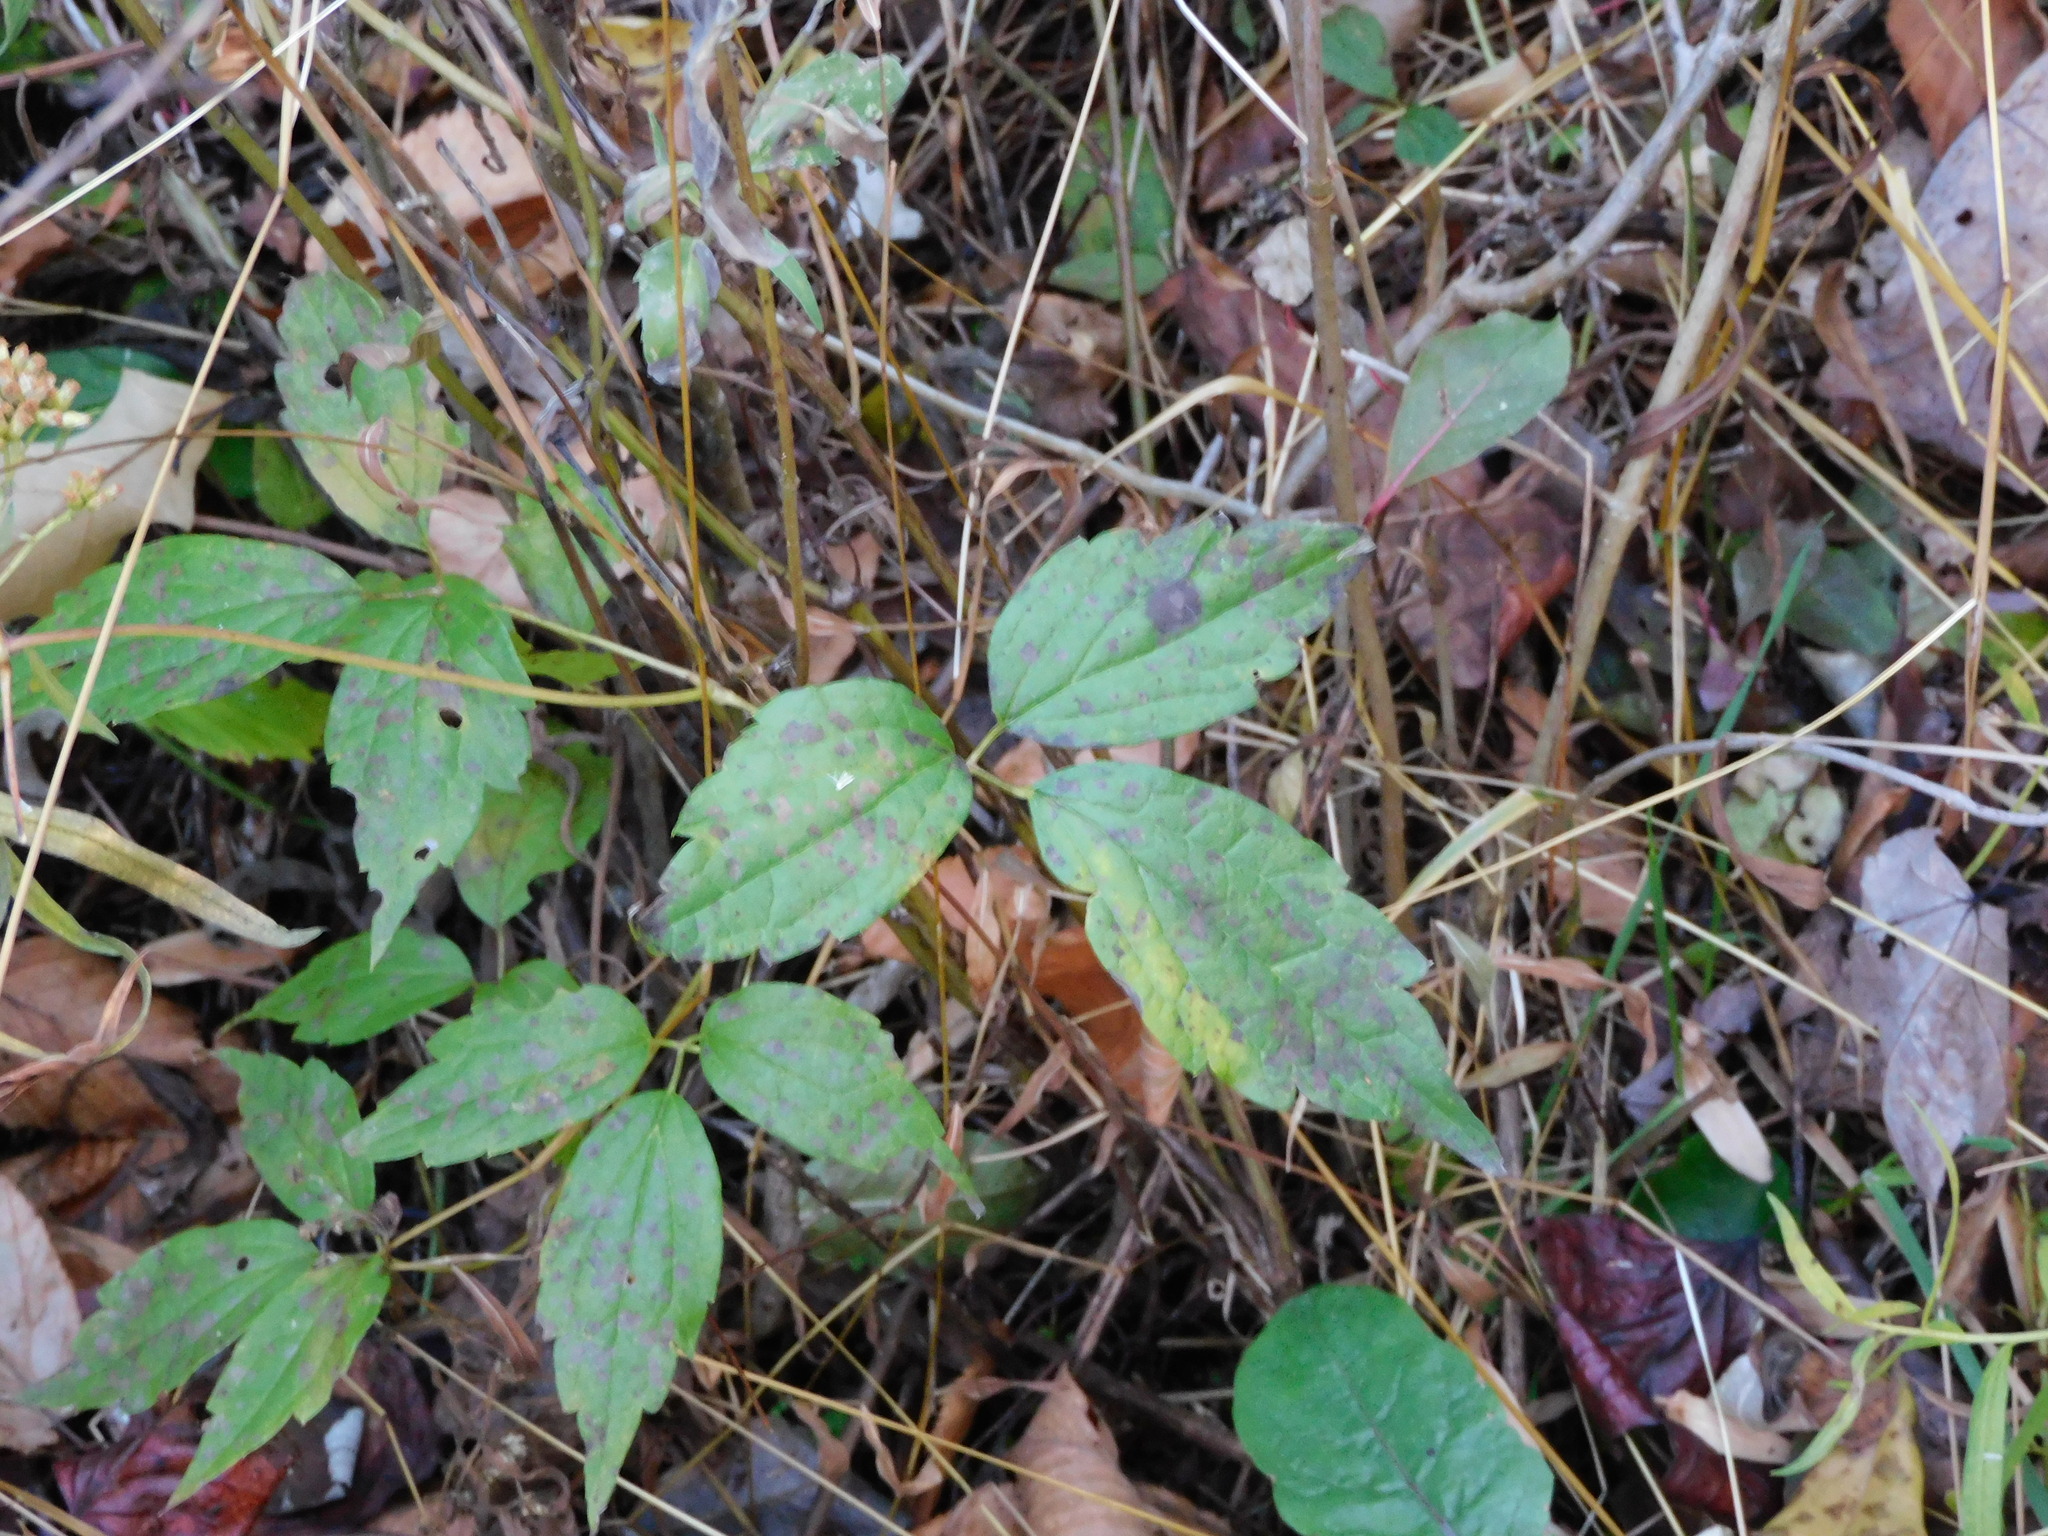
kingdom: Plantae
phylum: Tracheophyta
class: Magnoliopsida
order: Ranunculales
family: Ranunculaceae
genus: Clematis
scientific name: Clematis virginiana
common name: Virgin's-bower
